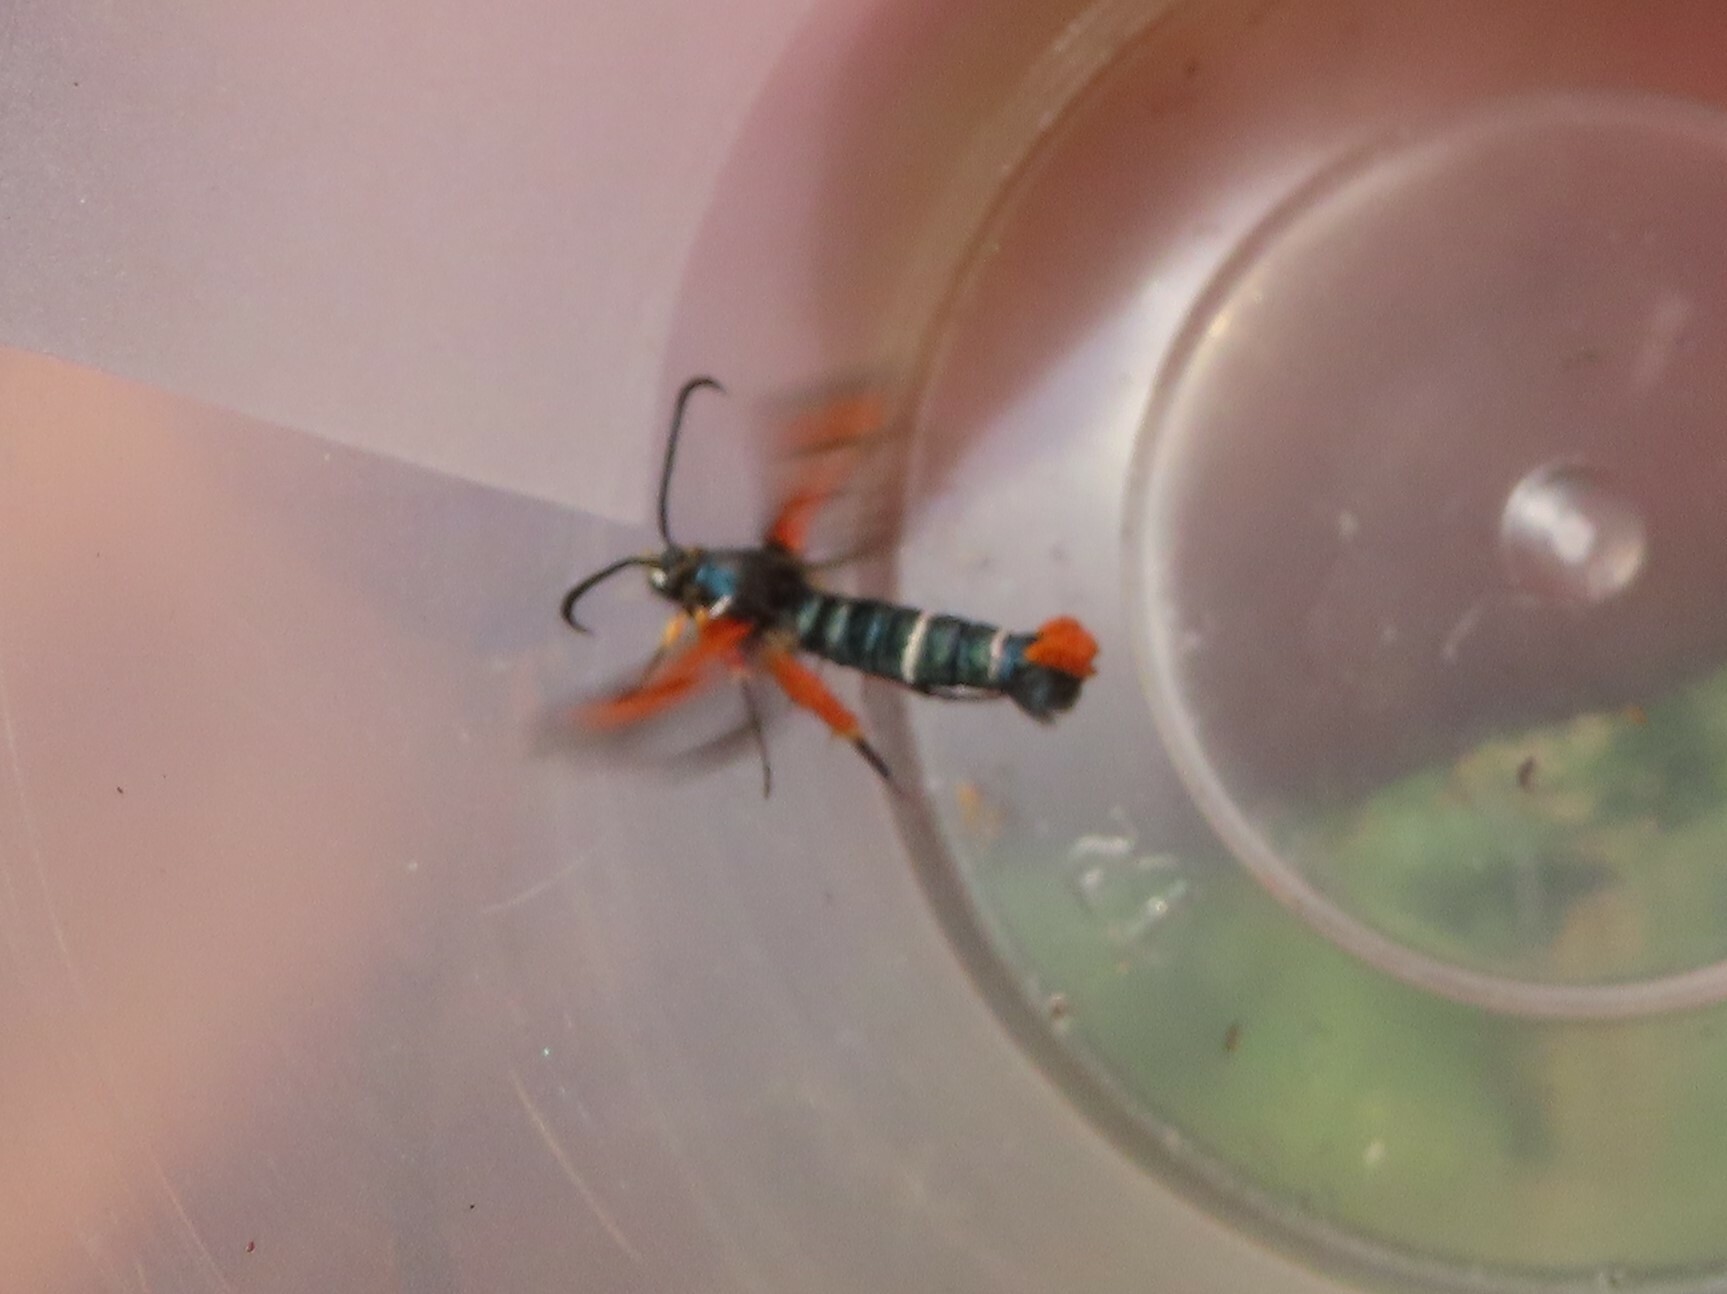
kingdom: Animalia
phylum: Arthropoda
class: Insecta
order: Lepidoptera
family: Sesiidae
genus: Pyropteron
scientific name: Pyropteron chrysidiforme
